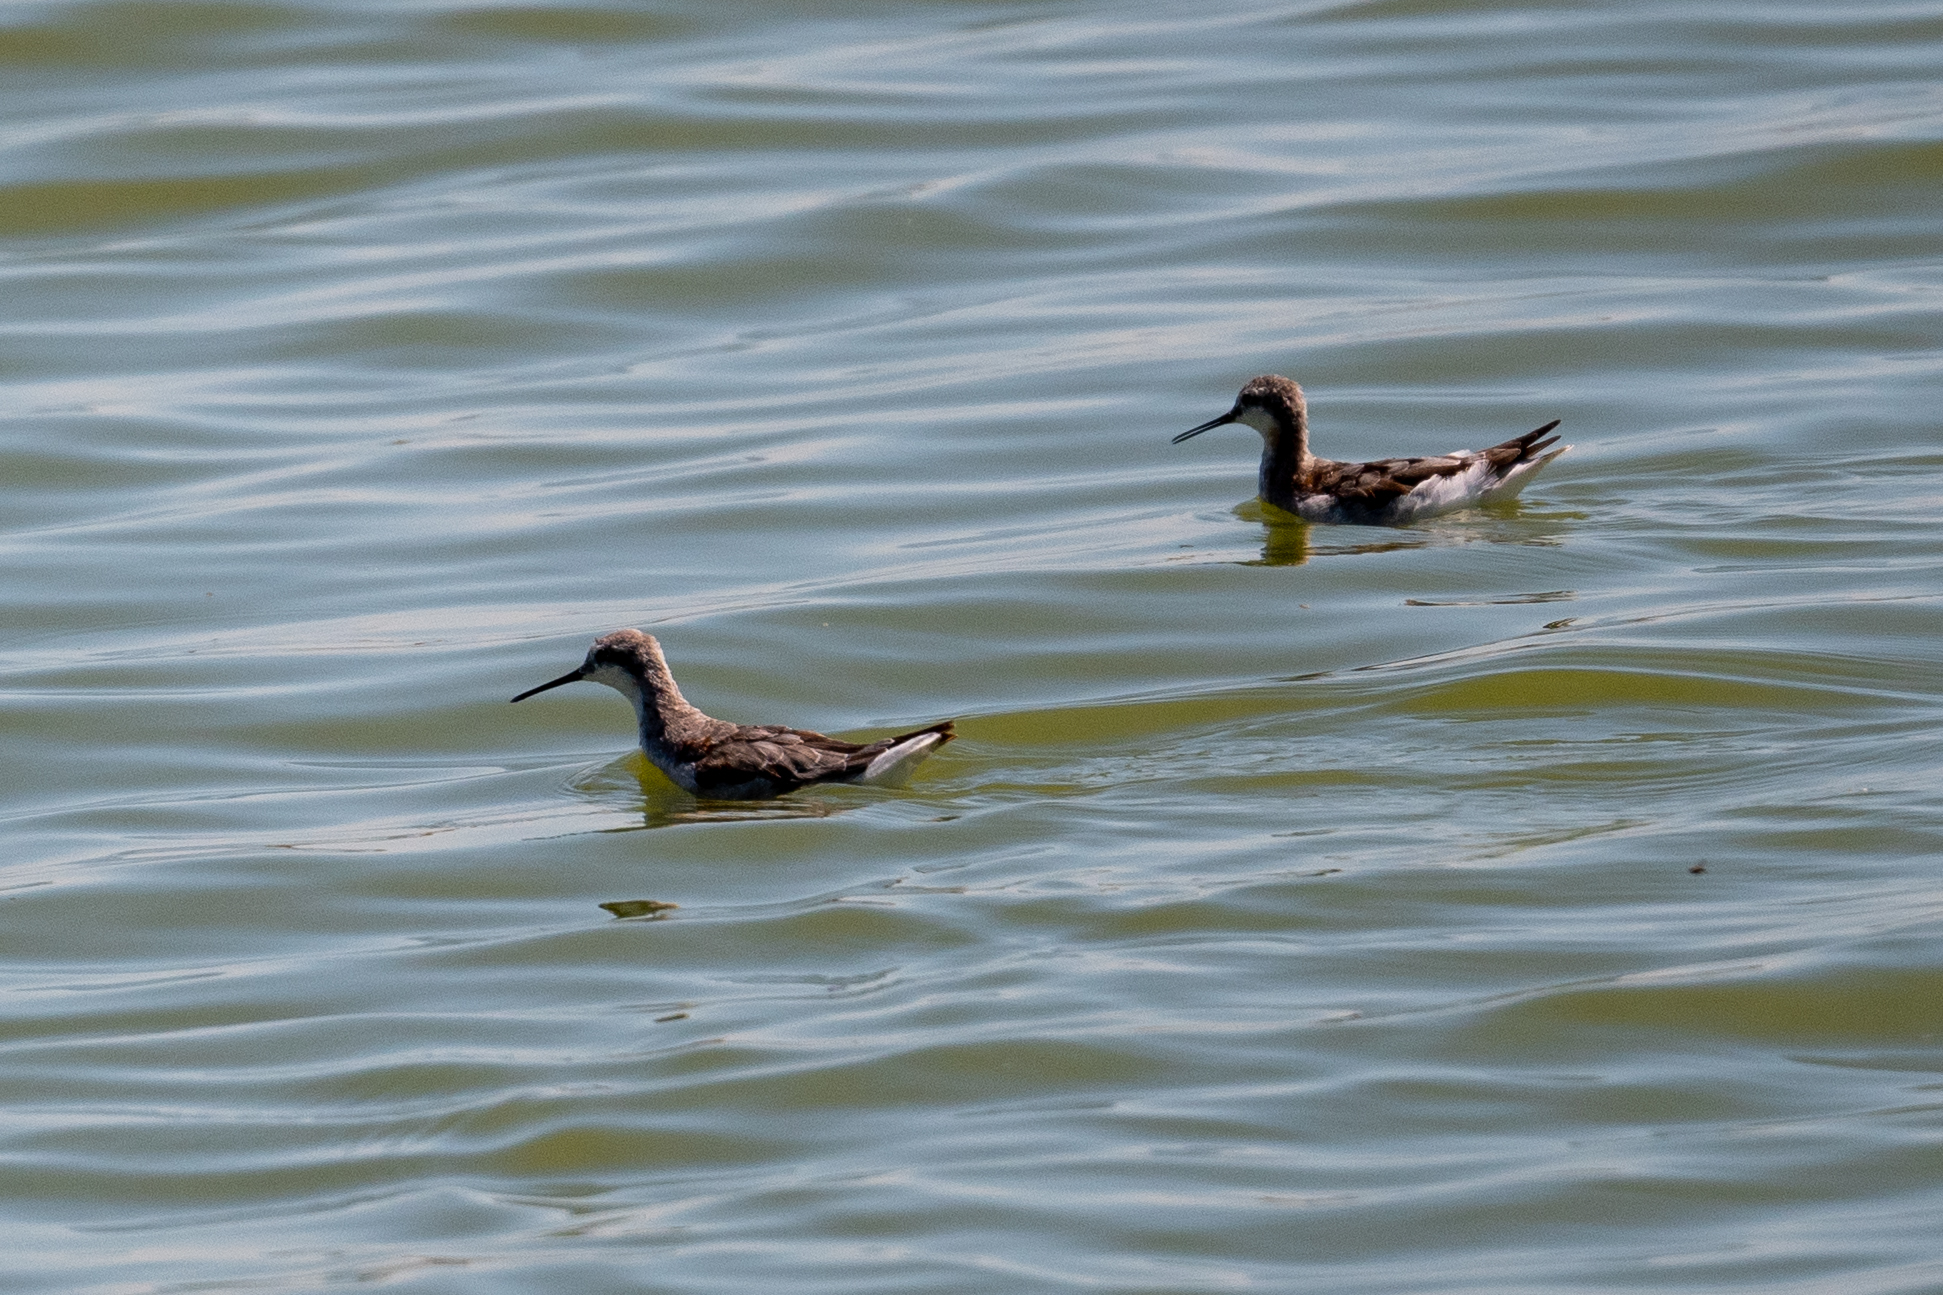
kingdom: Animalia
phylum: Chordata
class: Aves
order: Charadriiformes
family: Scolopacidae
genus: Phalaropus
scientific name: Phalaropus tricolor
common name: Wilson's phalarope
